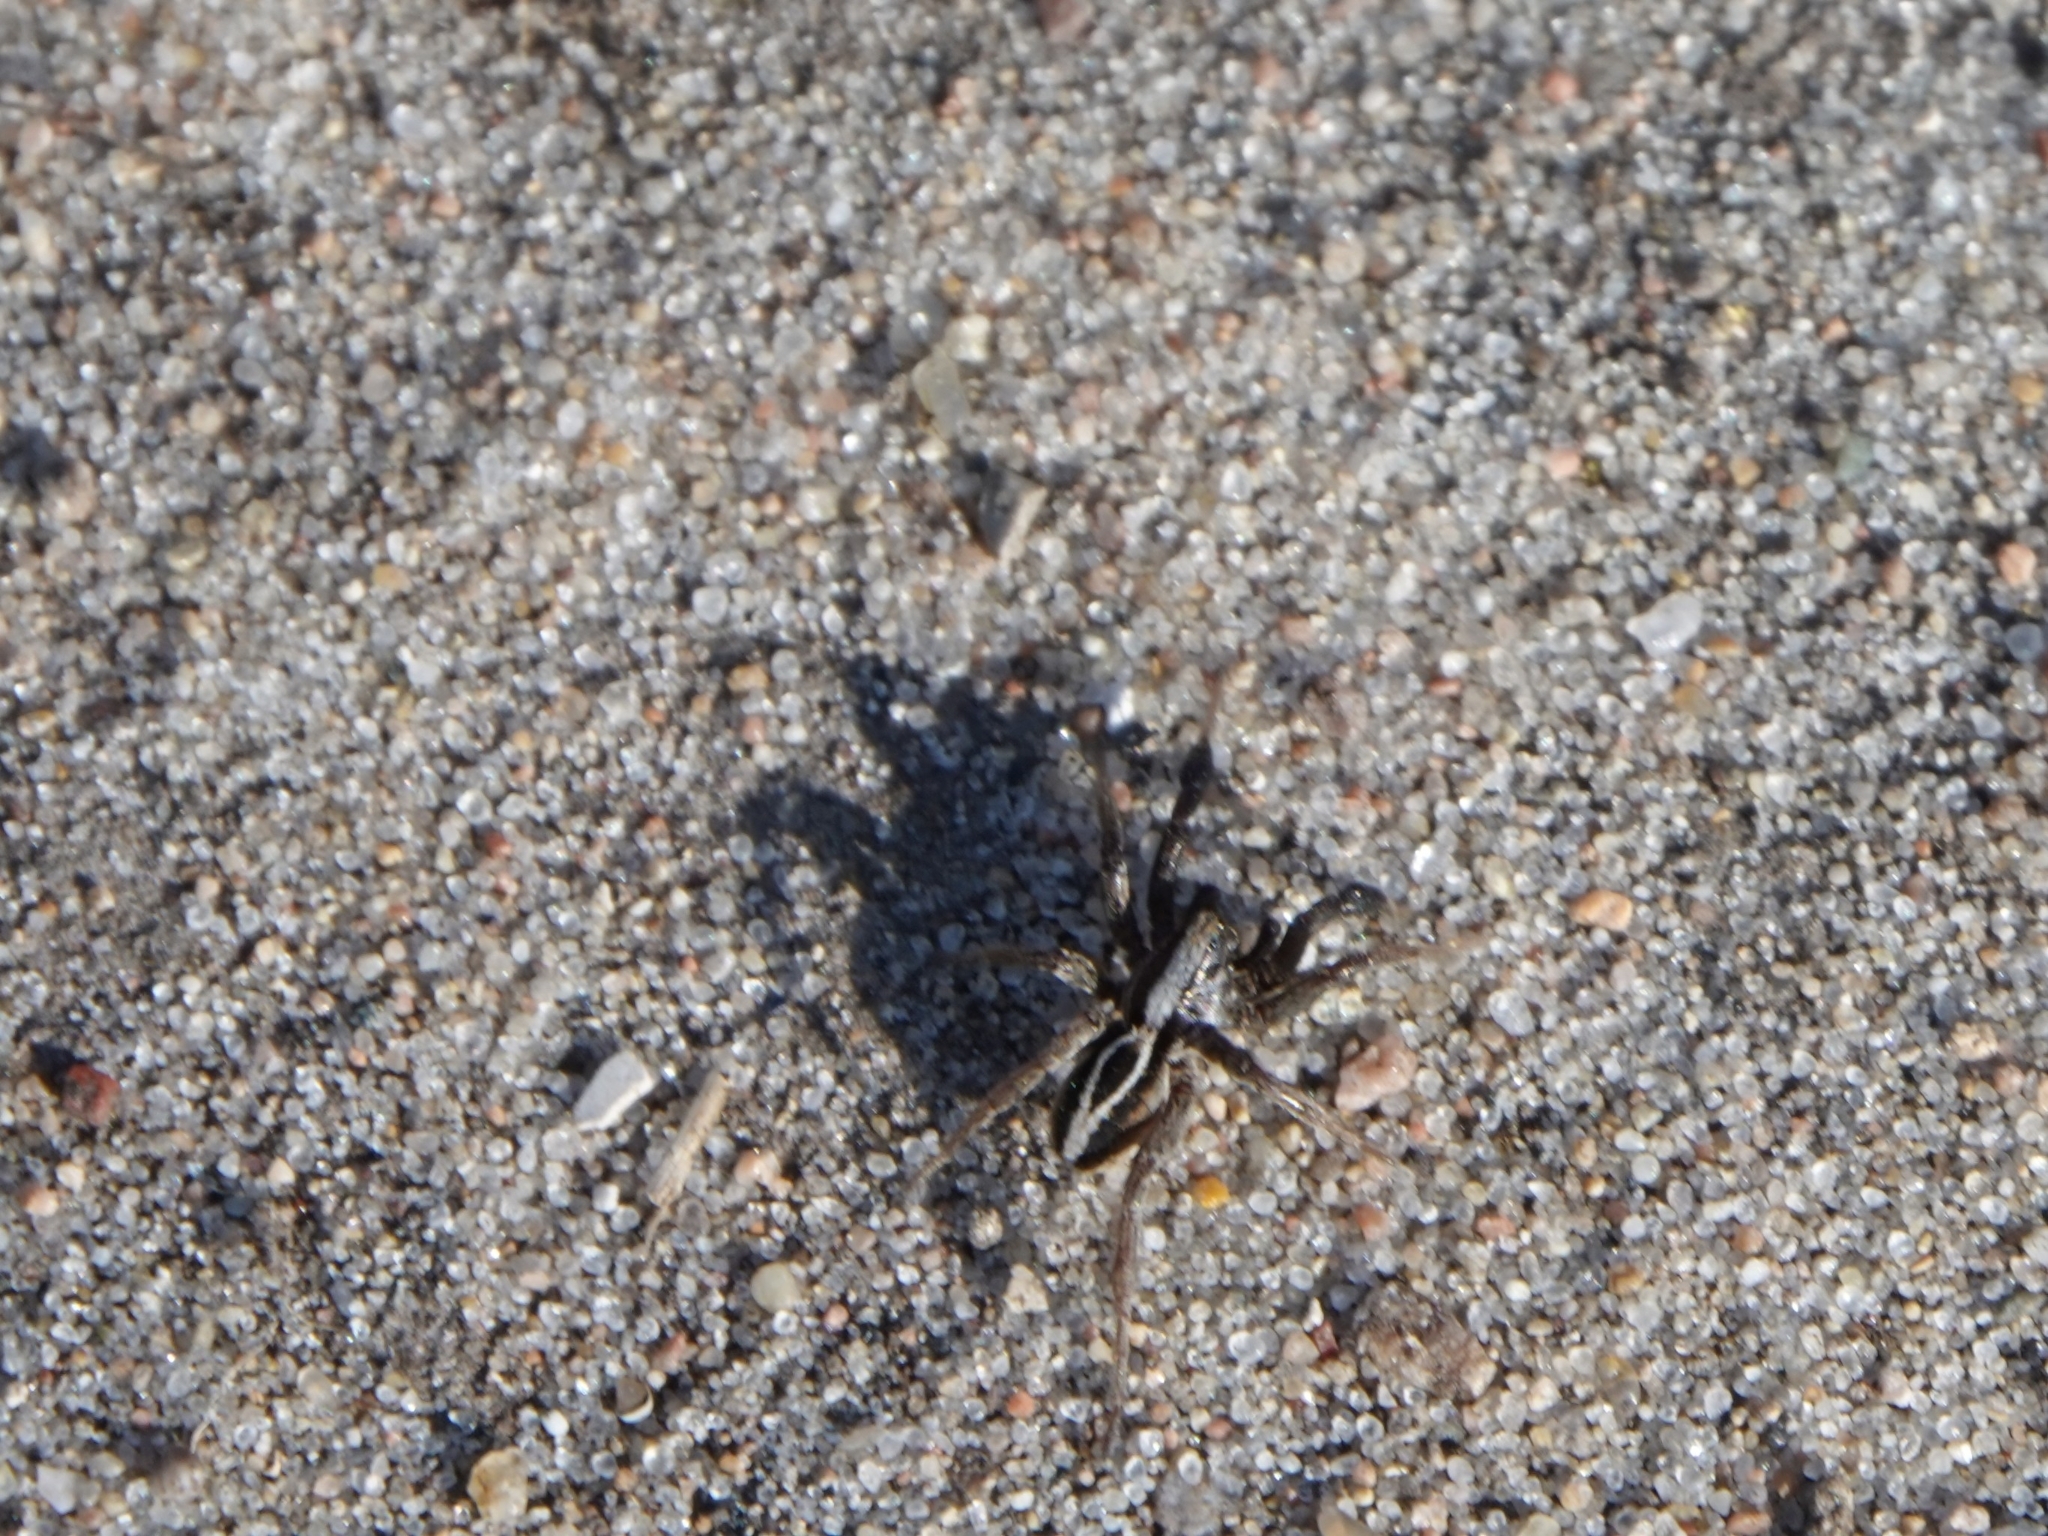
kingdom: Animalia
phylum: Arthropoda
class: Arachnida
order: Araneae
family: Lycosidae
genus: Alopecosa
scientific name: Alopecosa cuneata
